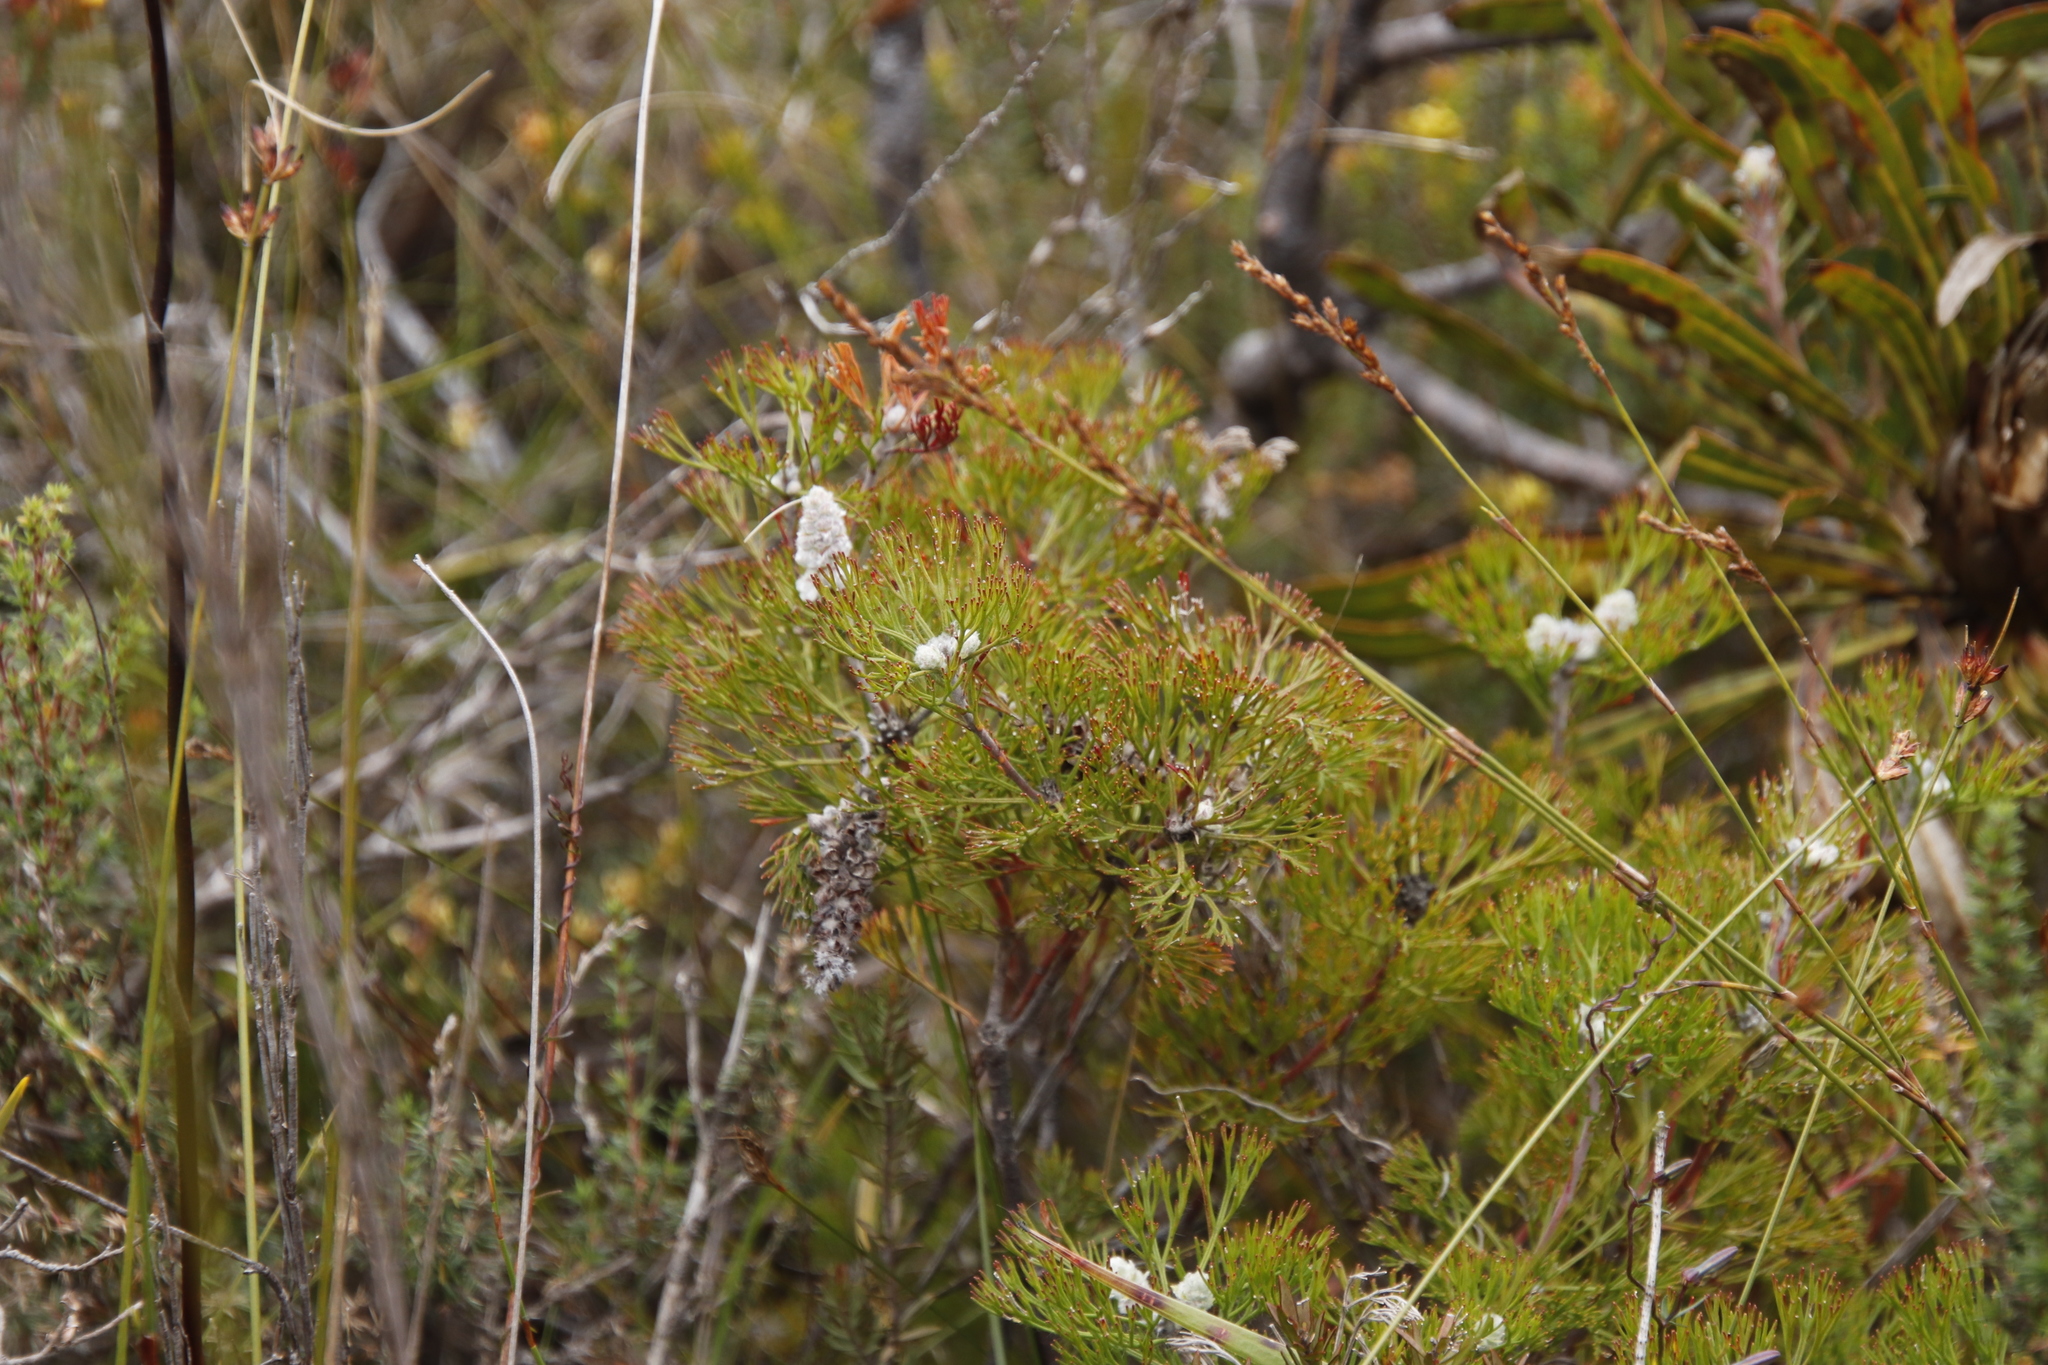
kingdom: Plantae
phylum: Tracheophyta
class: Magnoliopsida
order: Proteales
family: Proteaceae
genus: Paranomus
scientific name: Paranomus abrotanifolius
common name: Bredasdorp sceptre
